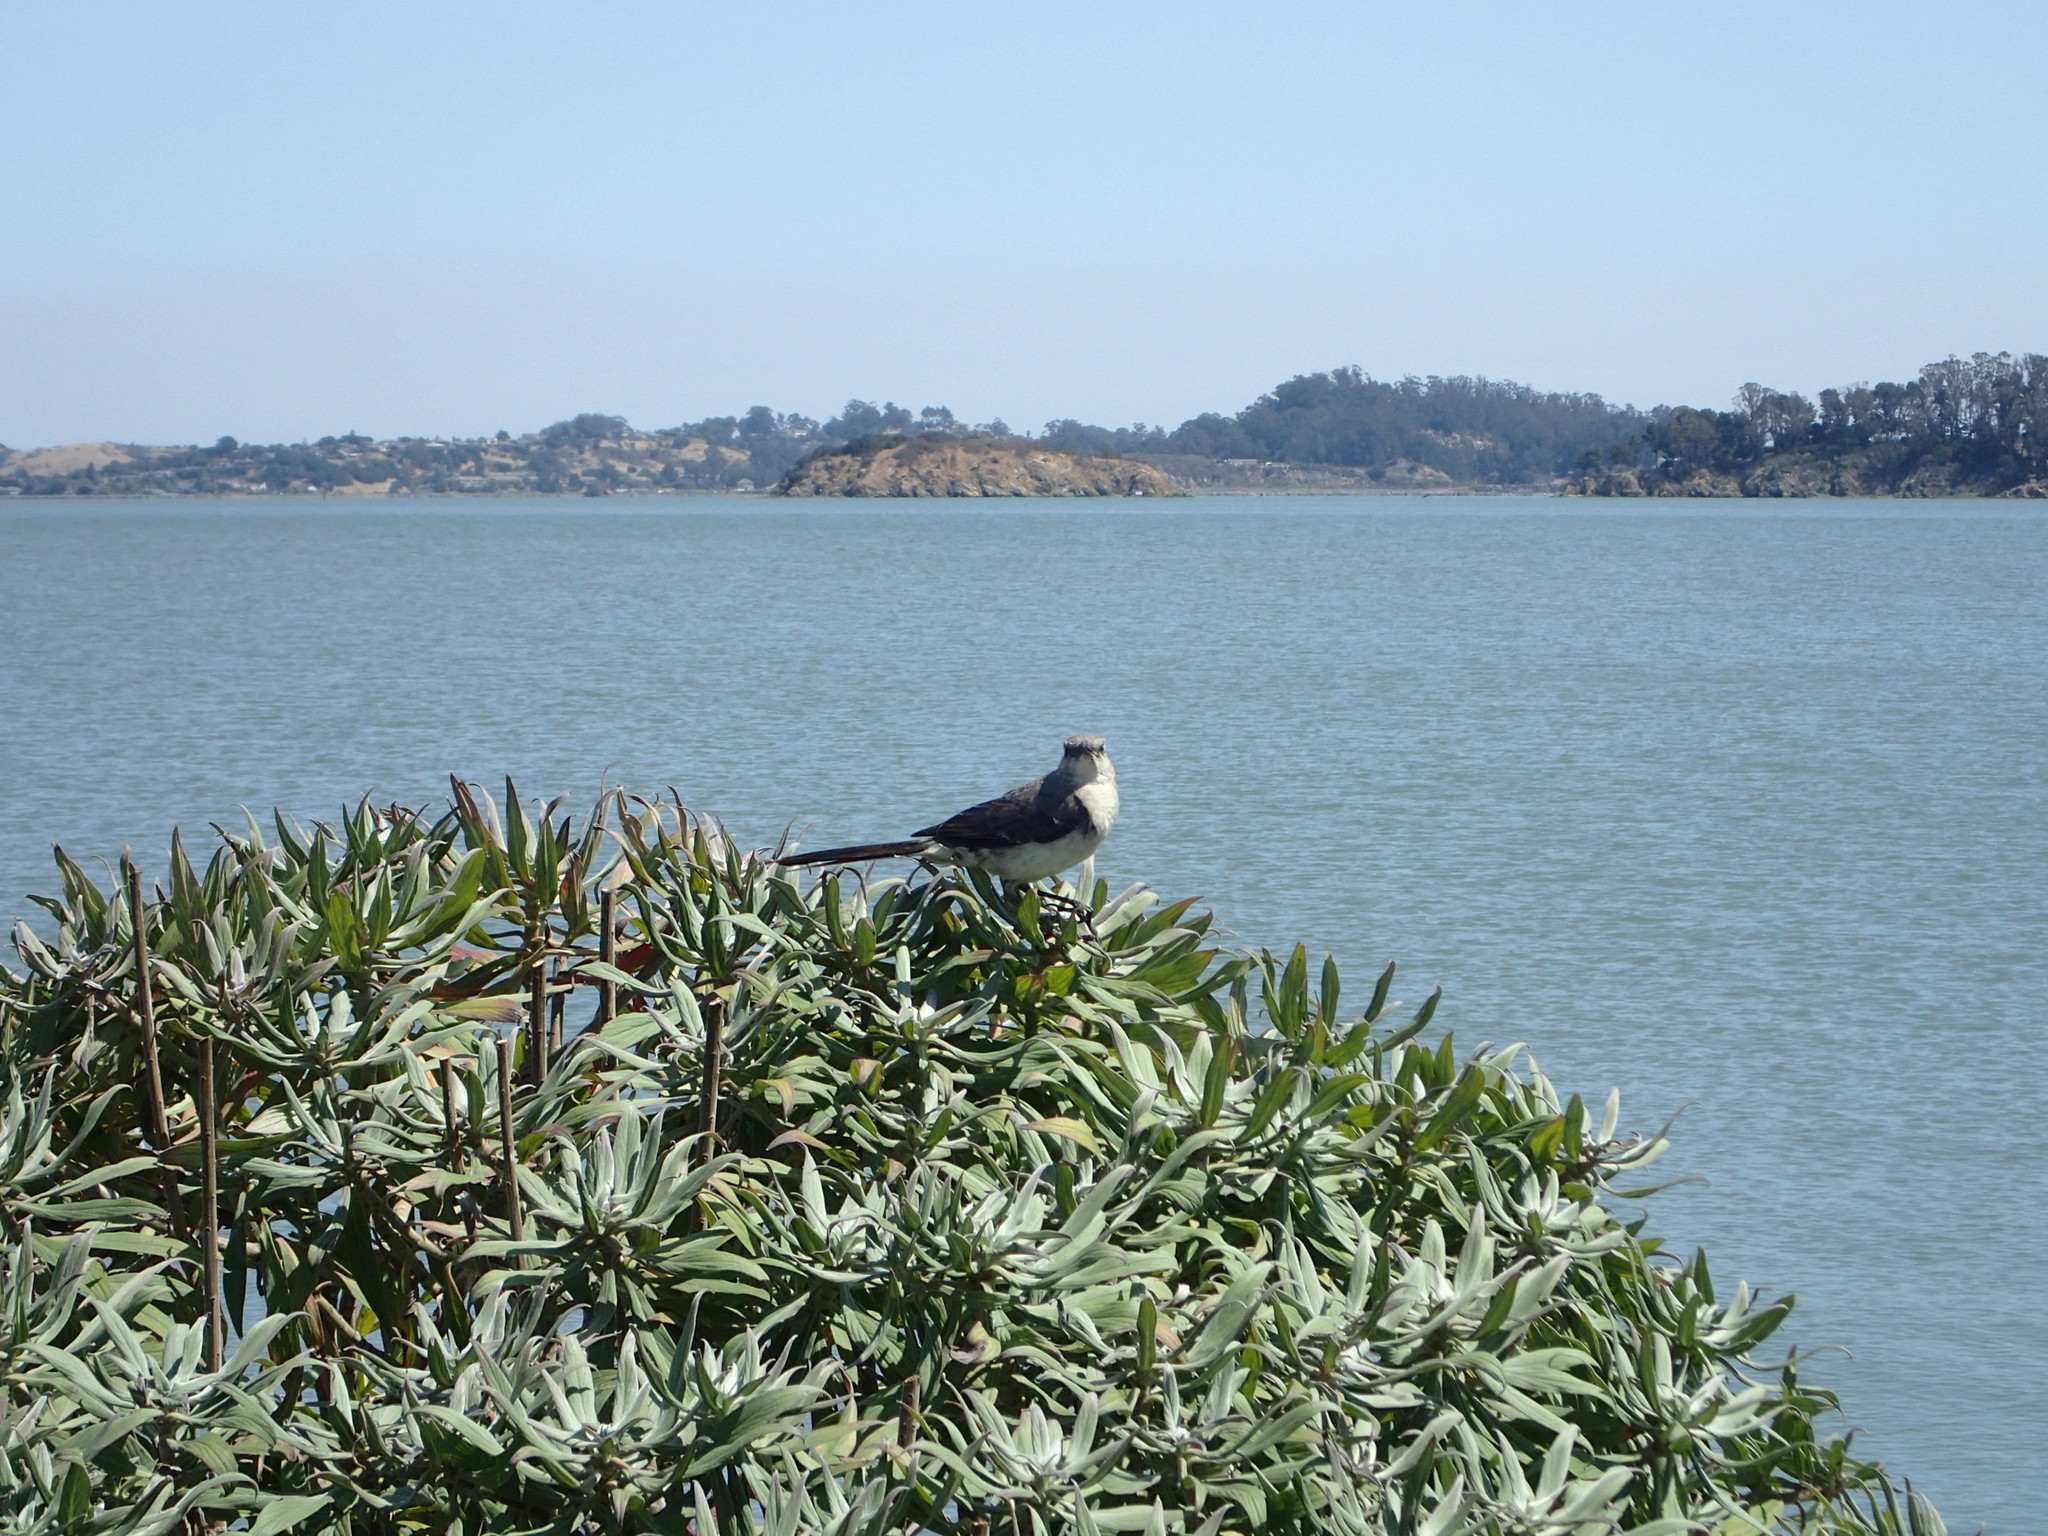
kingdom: Animalia
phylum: Chordata
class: Aves
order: Passeriformes
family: Mimidae
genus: Mimus
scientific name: Mimus polyglottos
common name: Northern mockingbird
